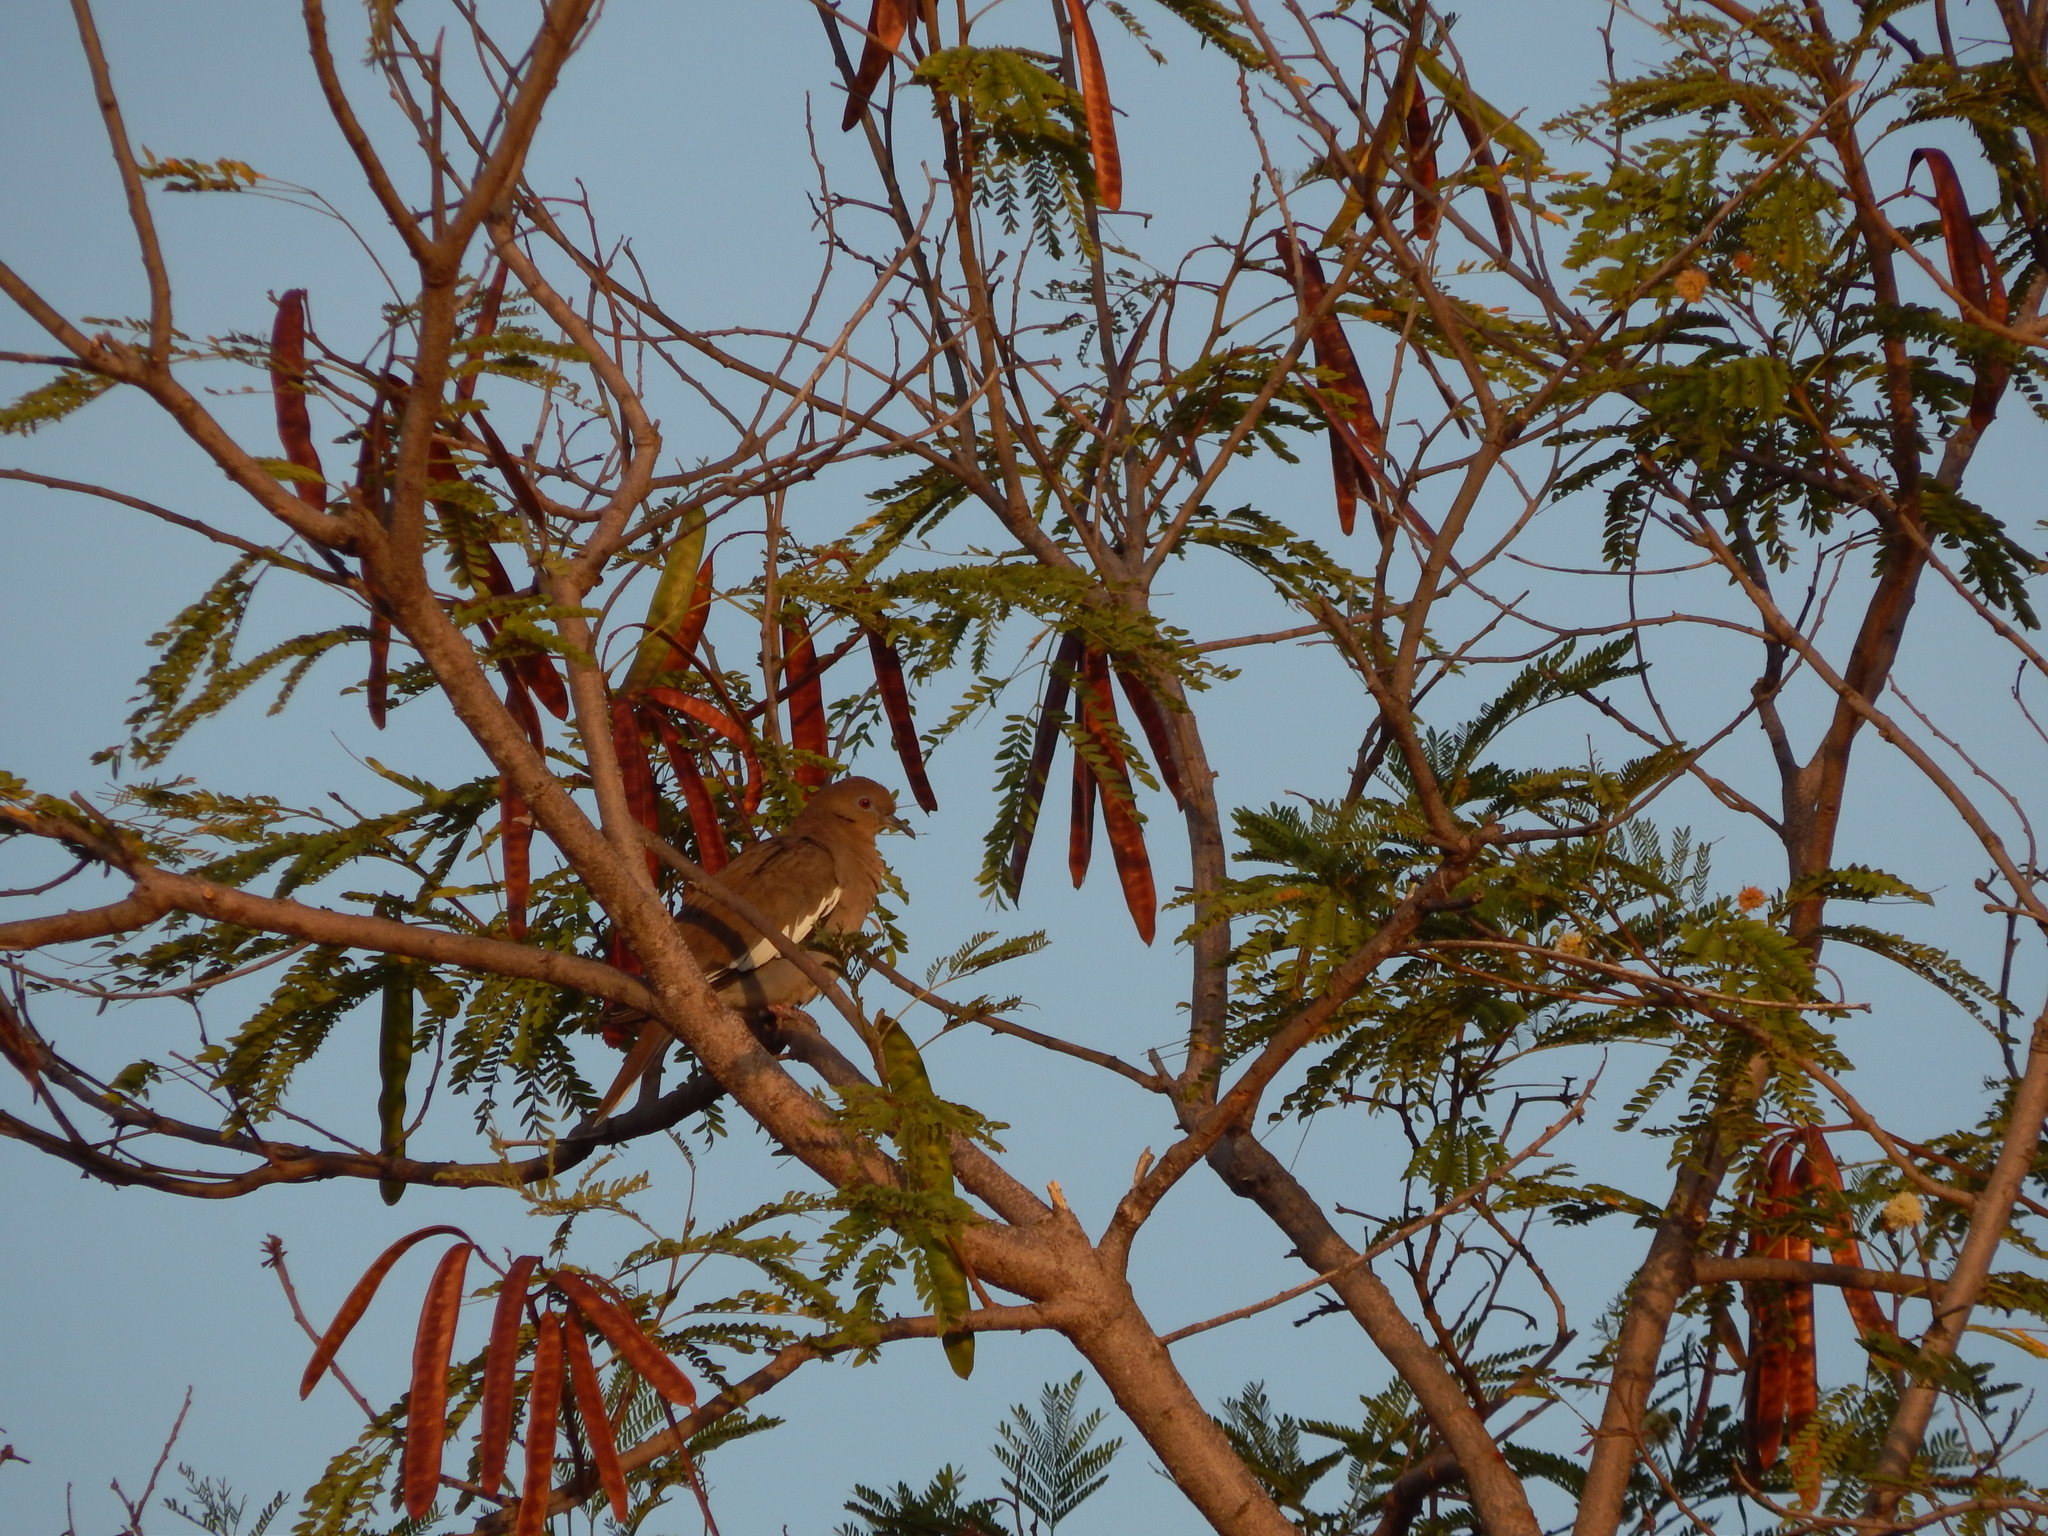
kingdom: Animalia
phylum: Chordata
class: Aves
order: Columbiformes
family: Columbidae
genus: Zenaida
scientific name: Zenaida asiatica
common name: White-winged dove
